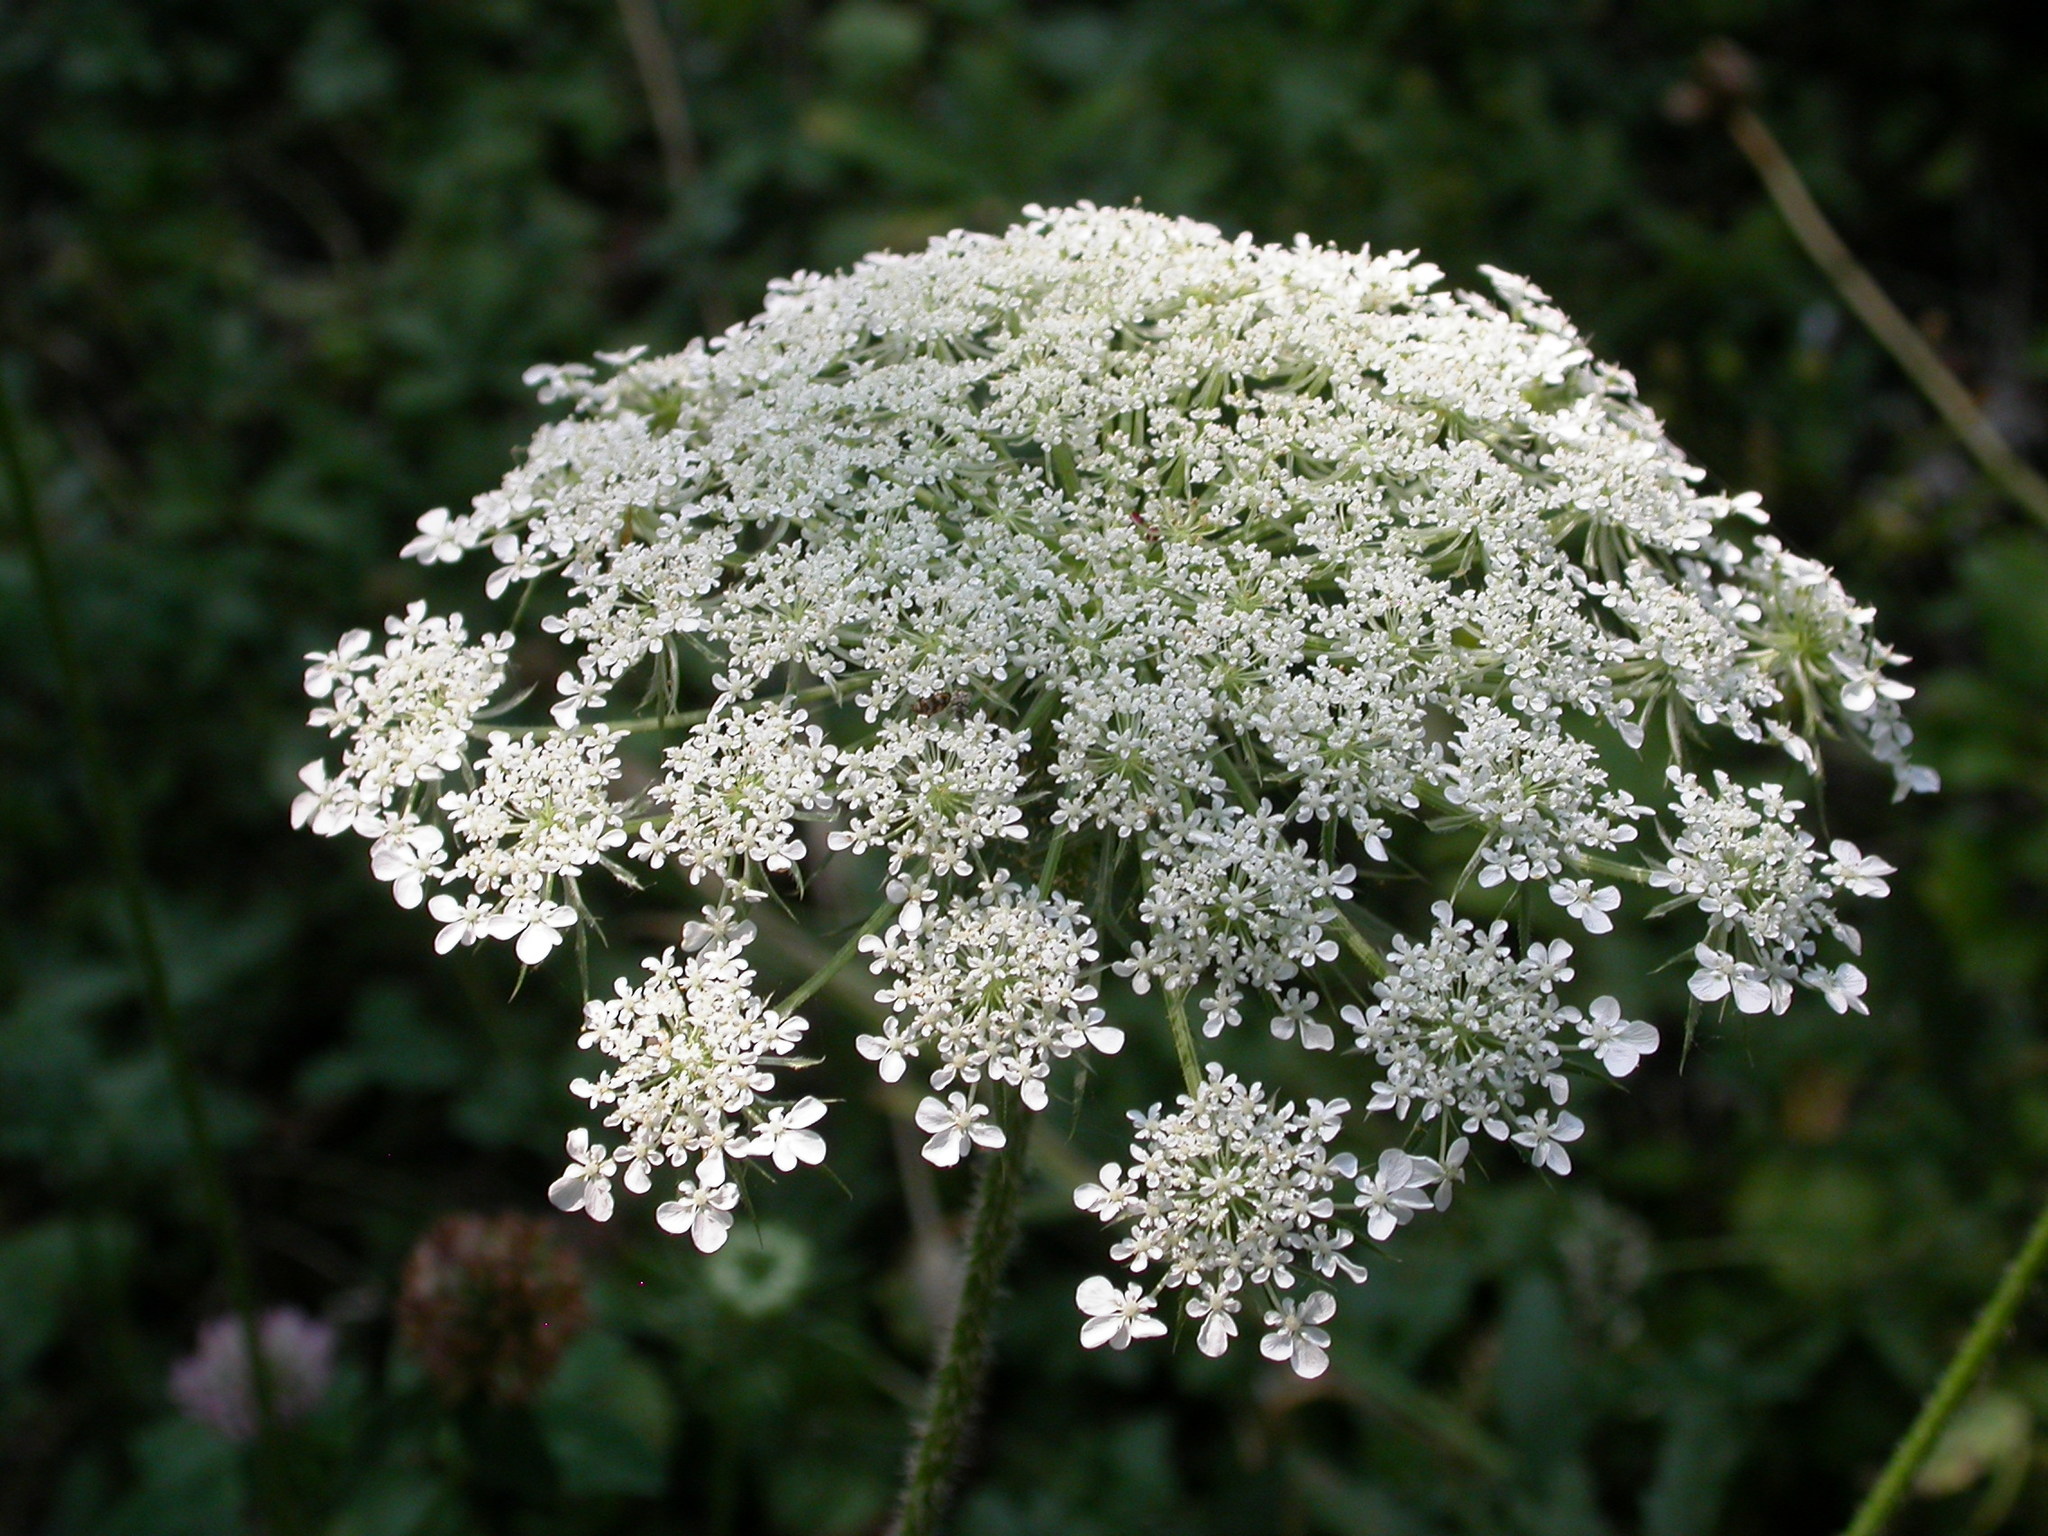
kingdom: Plantae
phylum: Tracheophyta
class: Magnoliopsida
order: Apiales
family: Apiaceae
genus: Daucus
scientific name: Daucus carota
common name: Wild carrot
